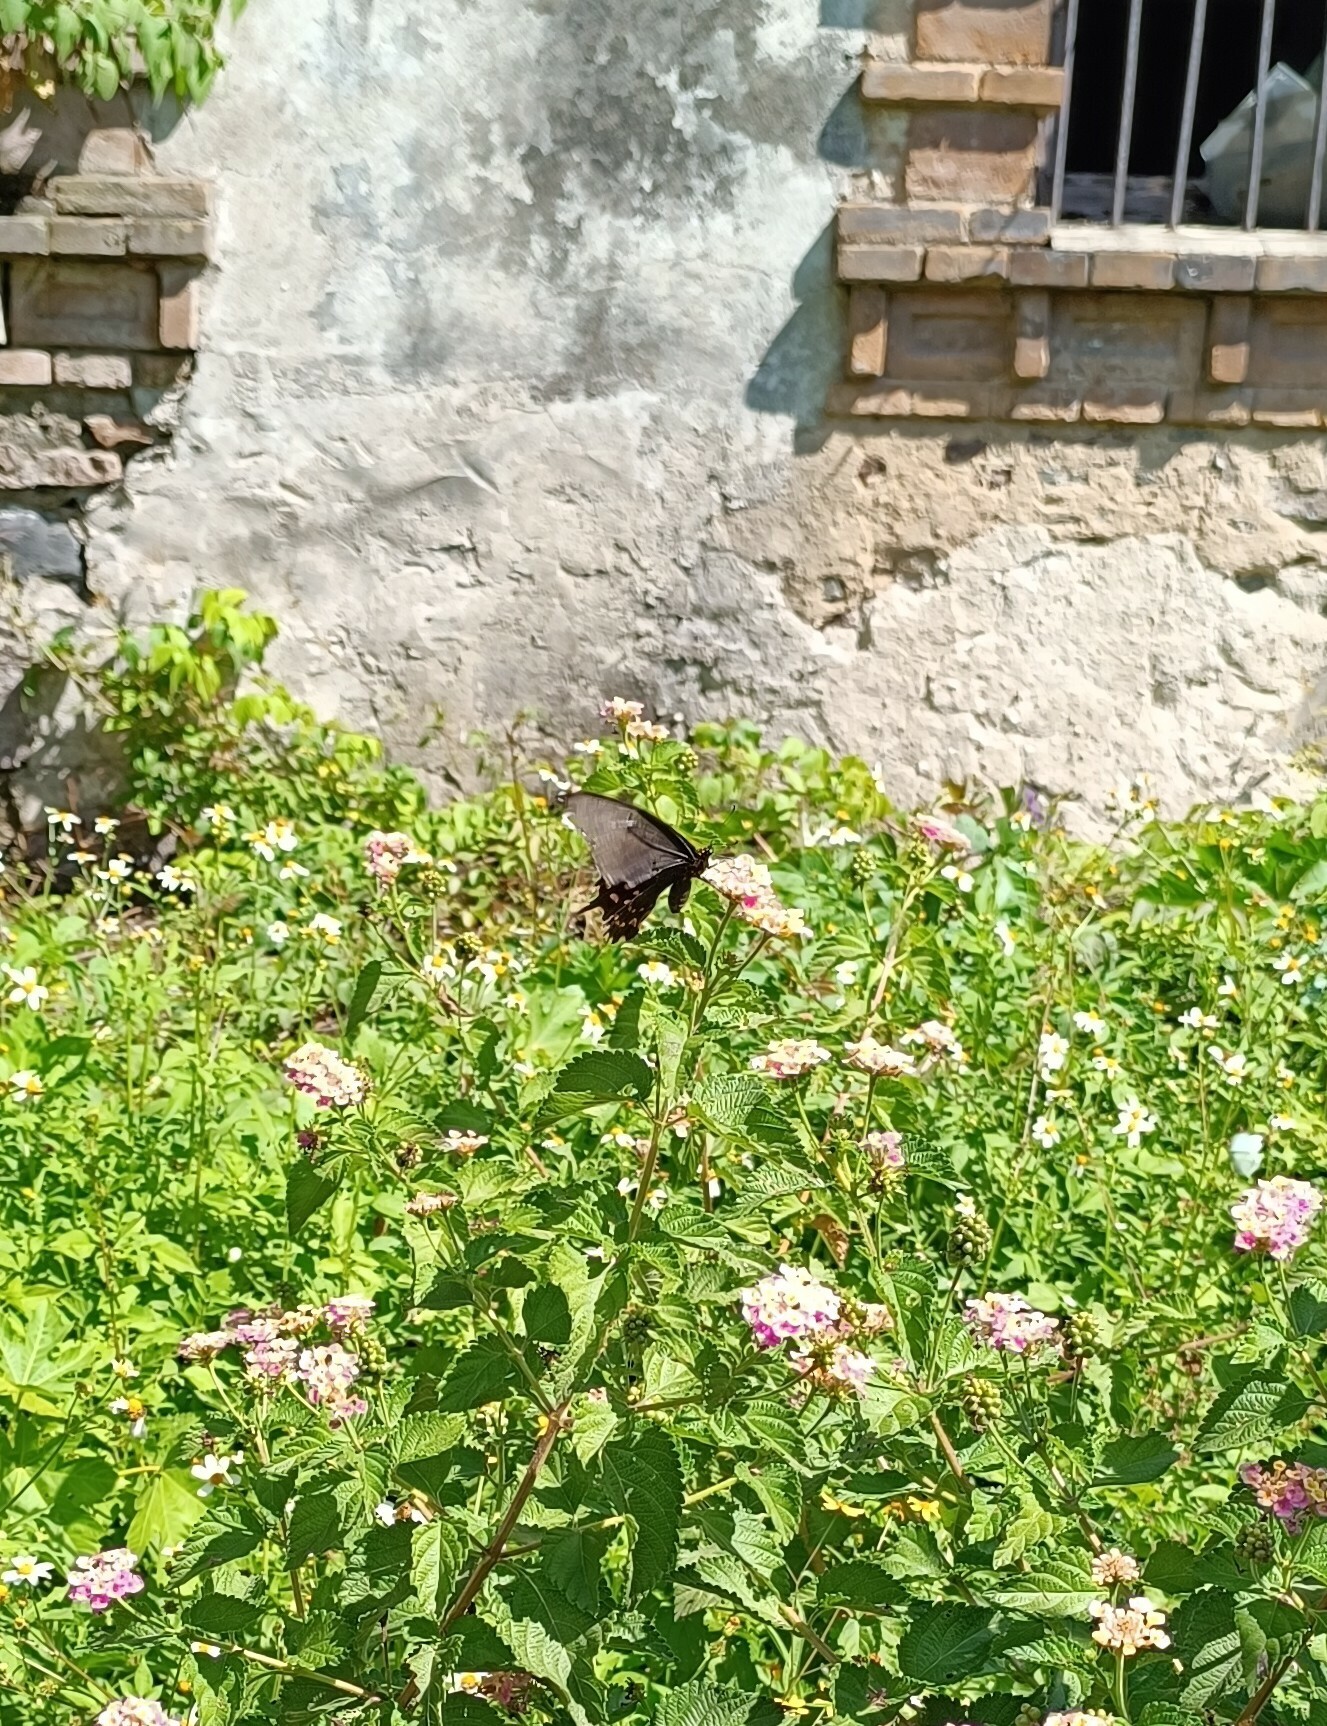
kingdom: Animalia
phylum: Arthropoda
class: Insecta
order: Lepidoptera
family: Papilionidae
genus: Heraclides
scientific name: Heraclides rogeri
